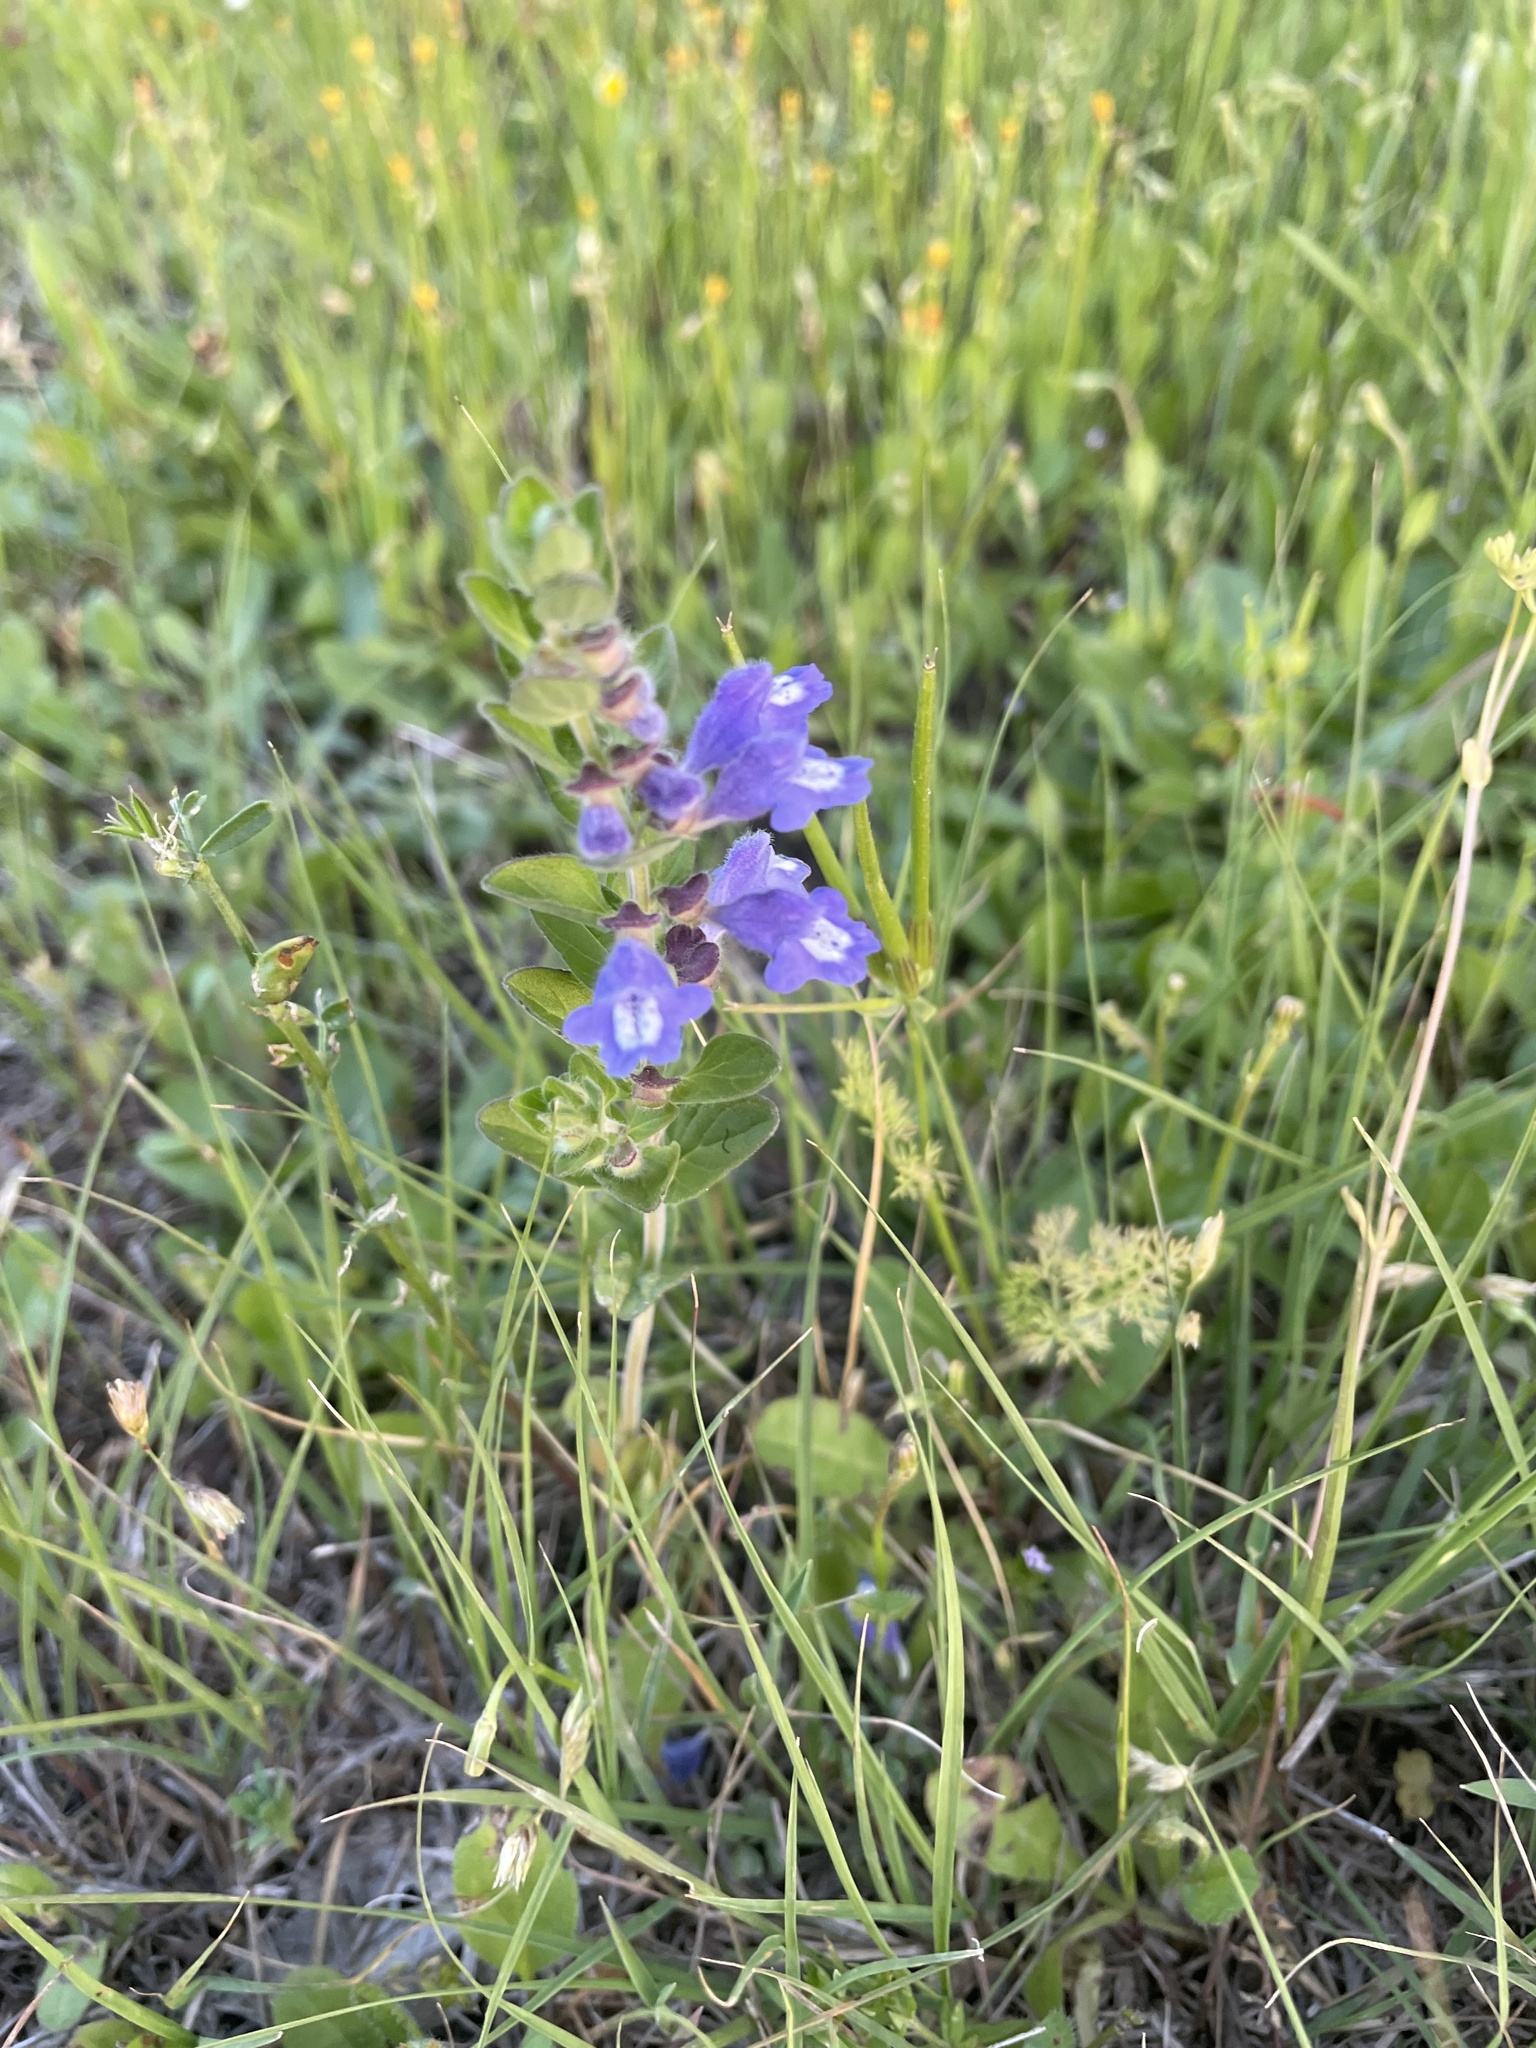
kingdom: Plantae
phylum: Tracheophyta
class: Magnoliopsida
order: Lamiales
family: Lamiaceae
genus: Scutellaria
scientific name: Scutellaria drummondii
